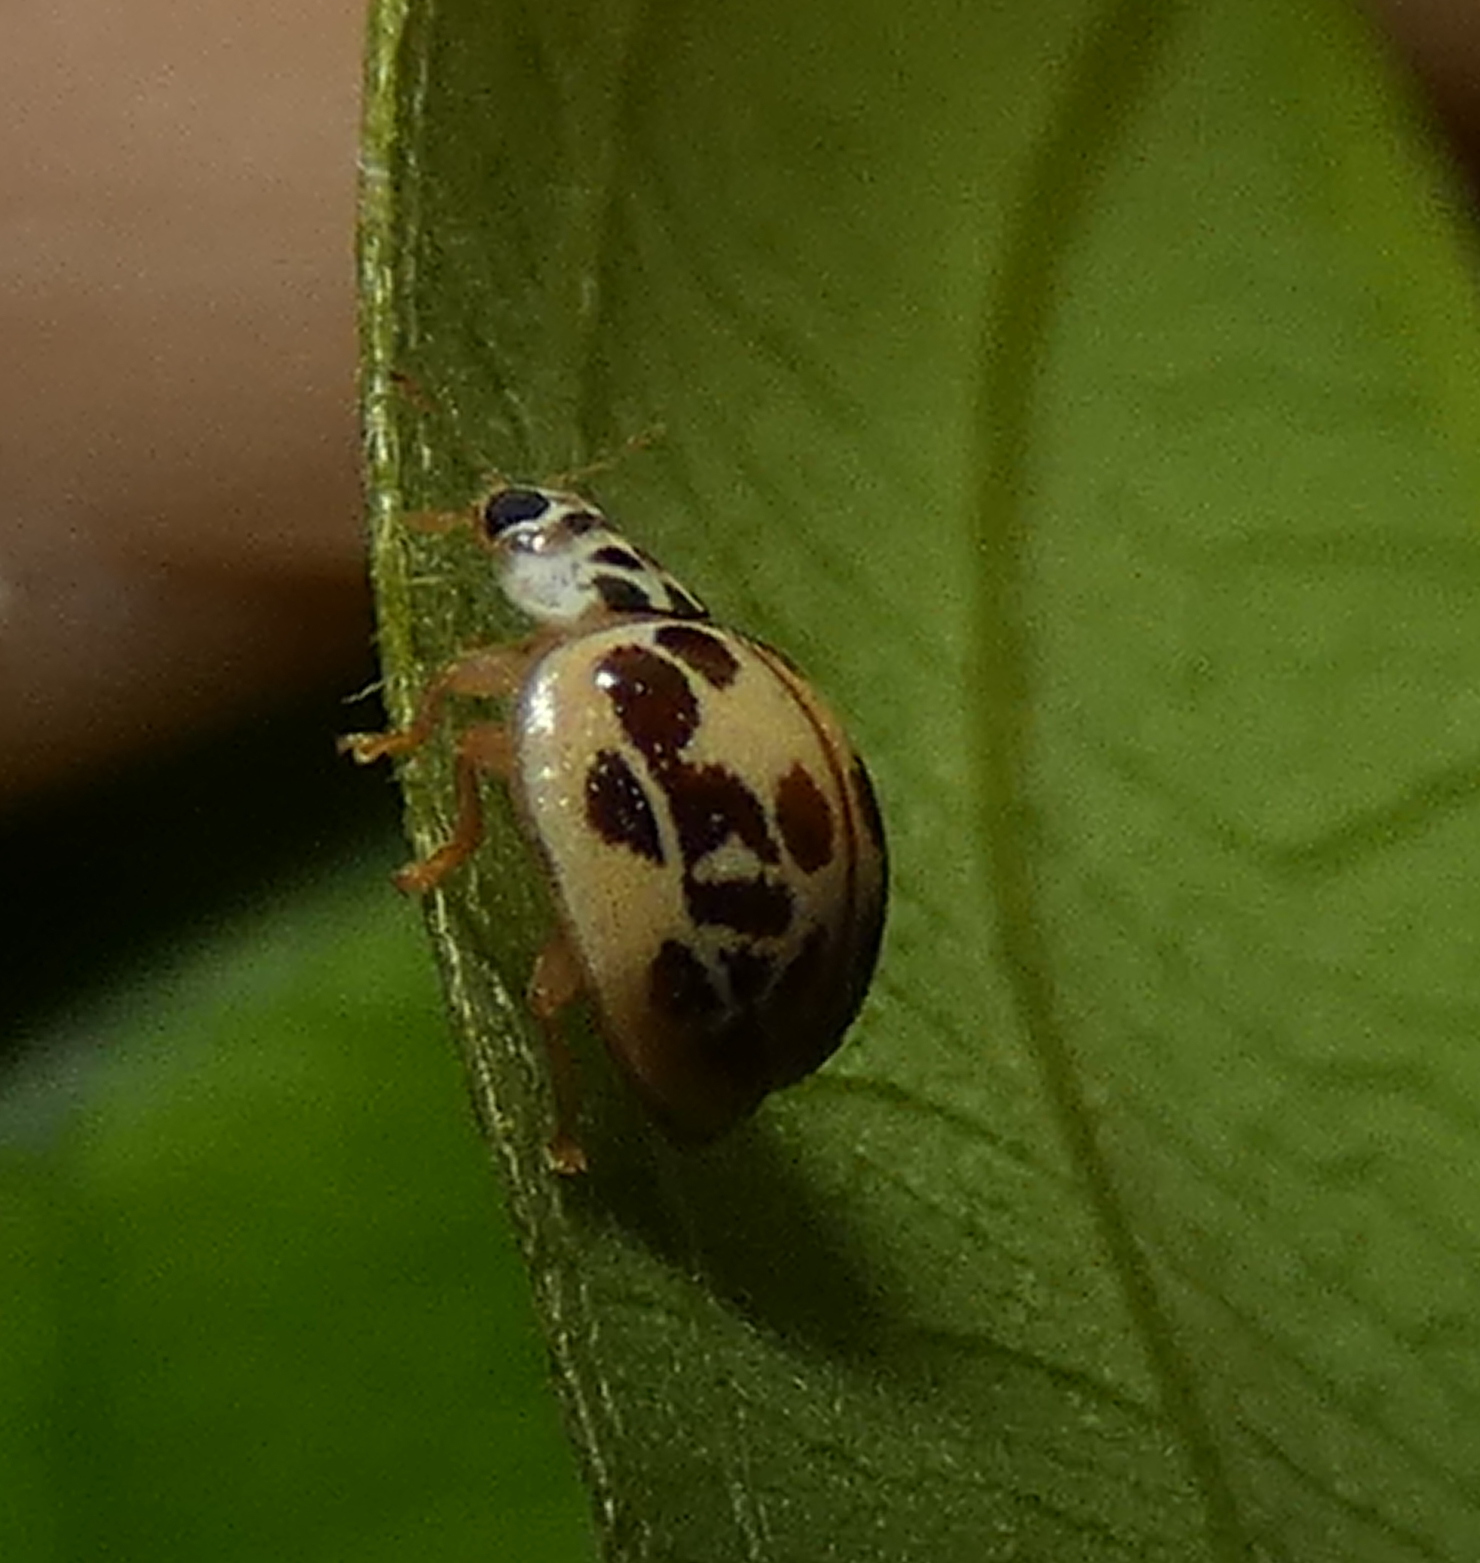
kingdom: Animalia
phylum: Arthropoda
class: Insecta
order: Coleoptera
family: Coccinellidae
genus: Psyllobora
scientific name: Psyllobora confluens
